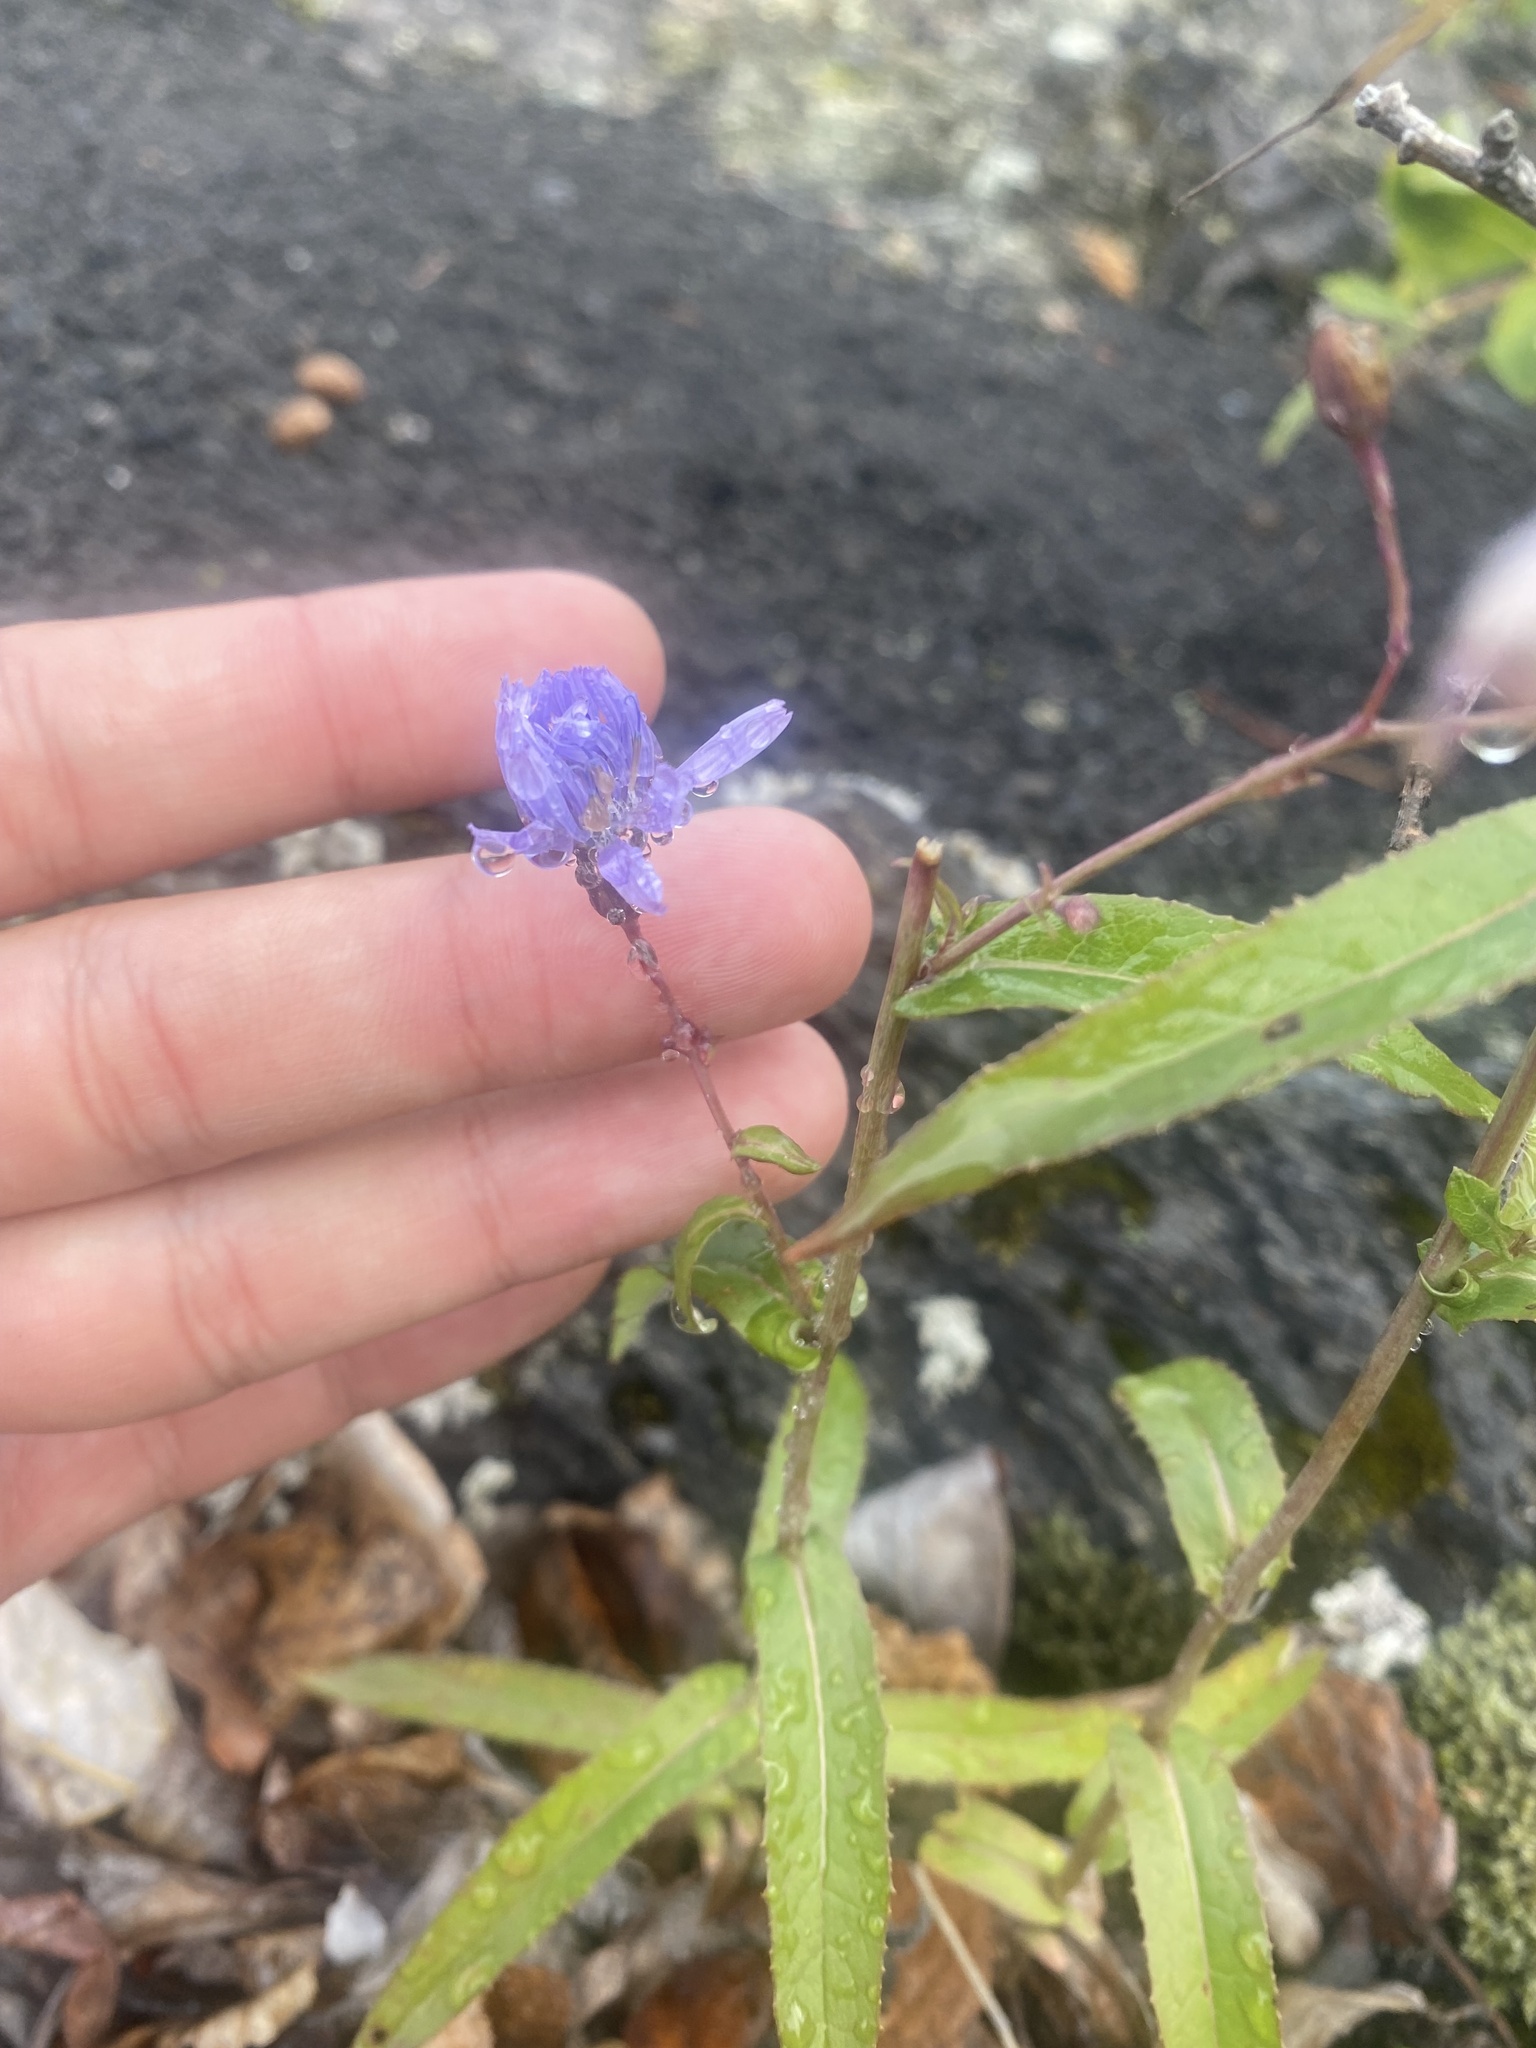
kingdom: Plantae
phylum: Tracheophyta
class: Magnoliopsida
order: Asterales
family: Asteraceae
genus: Lactuca
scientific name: Lactuca sibirica
